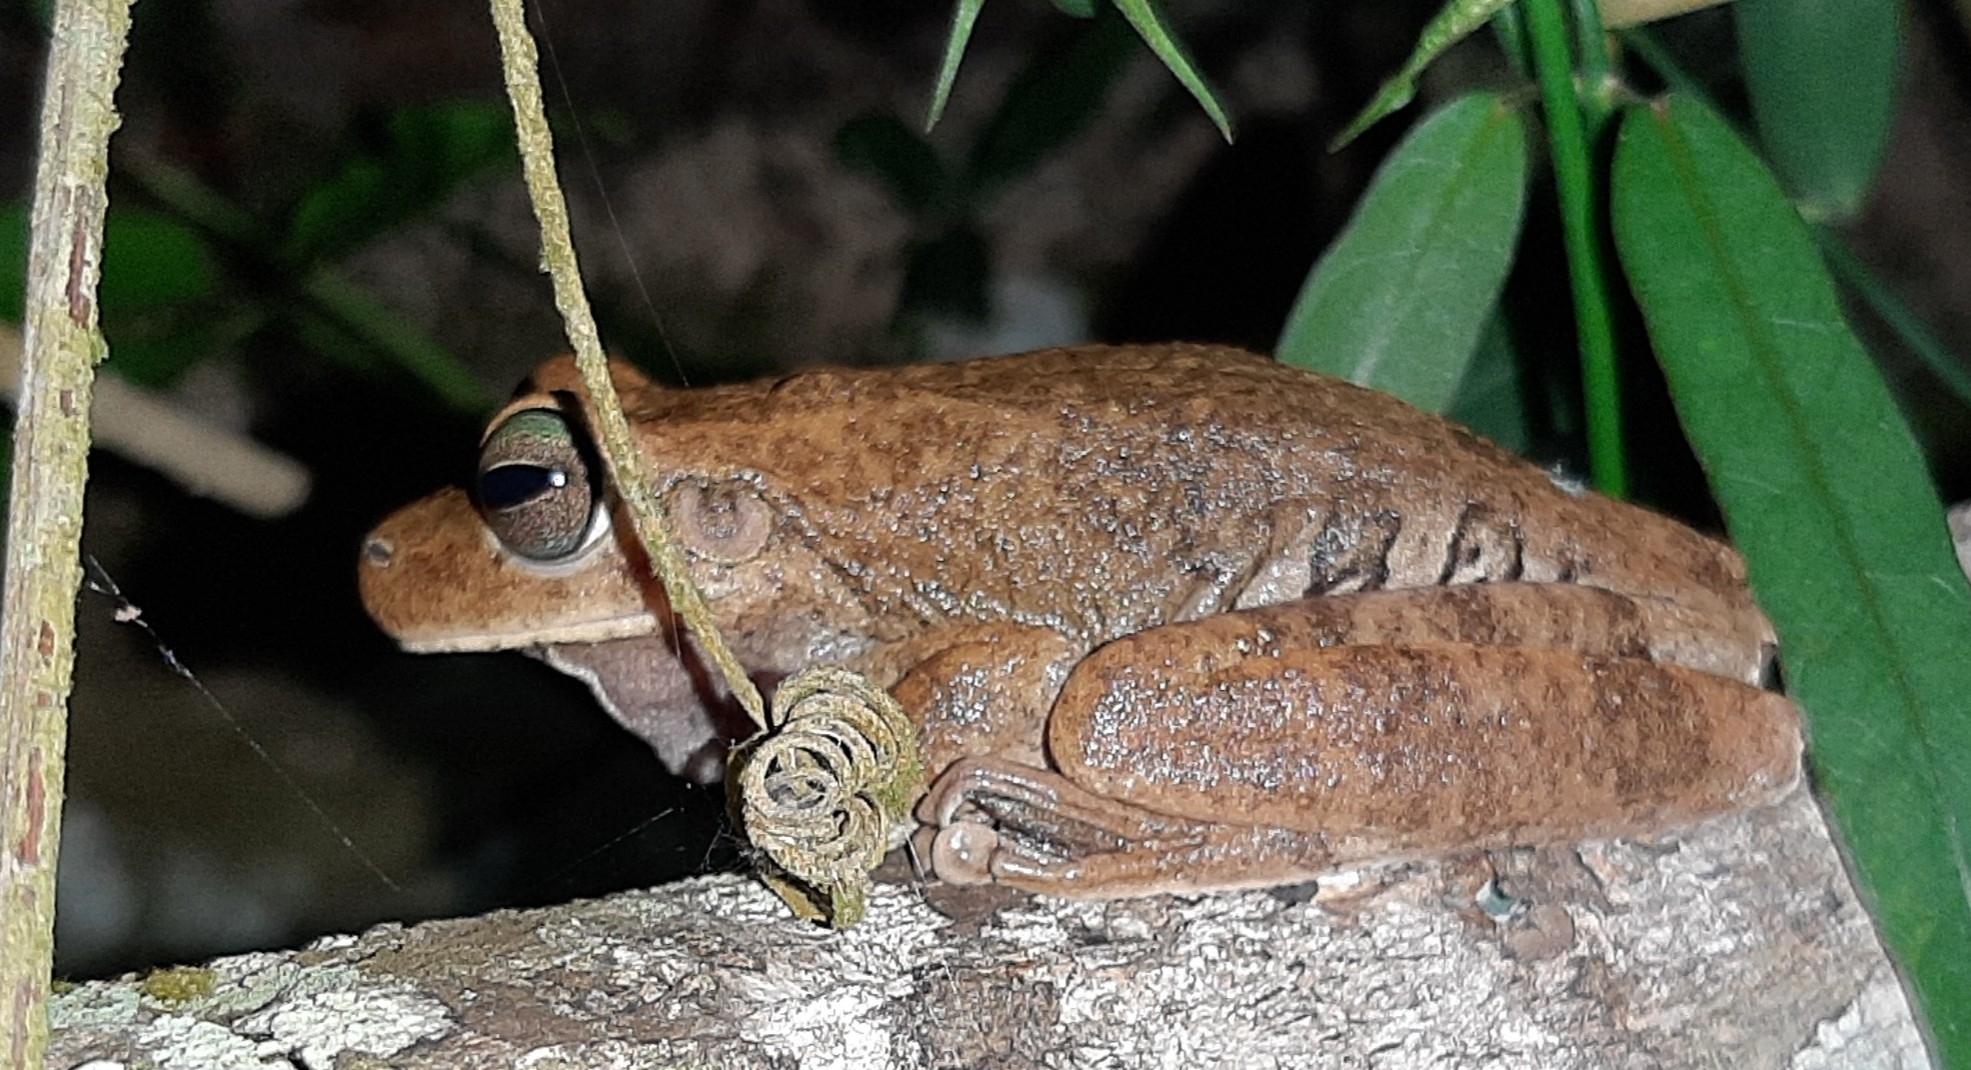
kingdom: Animalia
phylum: Chordata
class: Amphibia
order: Anura
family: Hylidae
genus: Boana
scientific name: Boana pugnax
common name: Chirique-flusse treefrog
